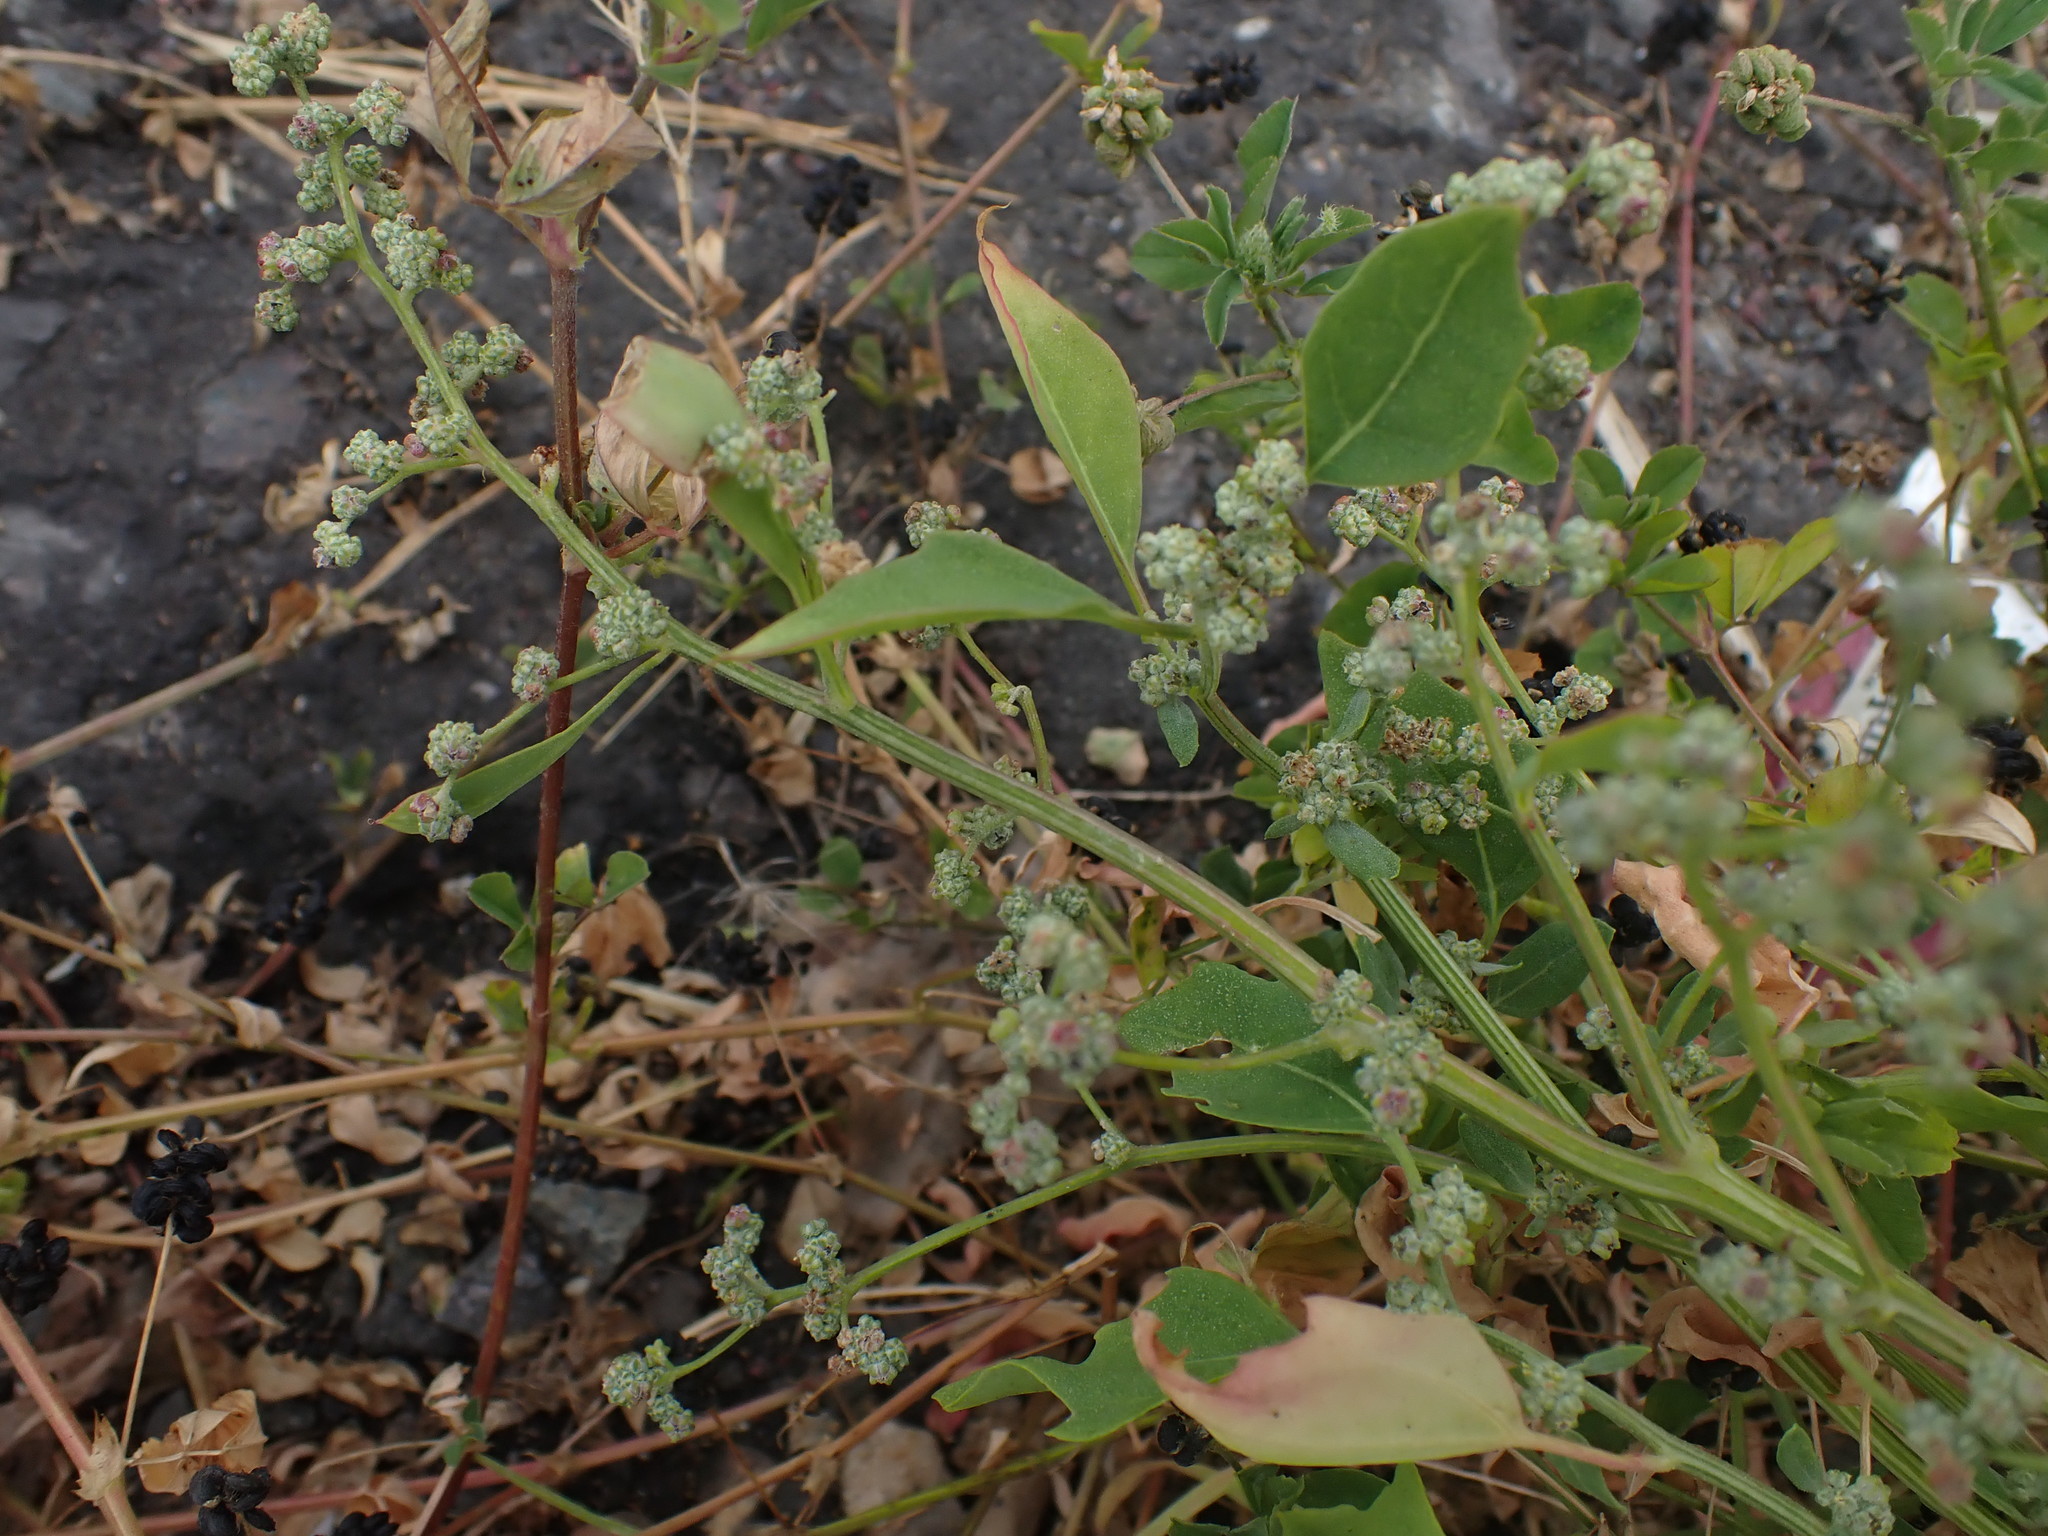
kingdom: Plantae
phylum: Tracheophyta
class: Magnoliopsida
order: Caryophyllales
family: Amaranthaceae
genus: Chenopodium
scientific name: Chenopodium album
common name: Fat-hen
